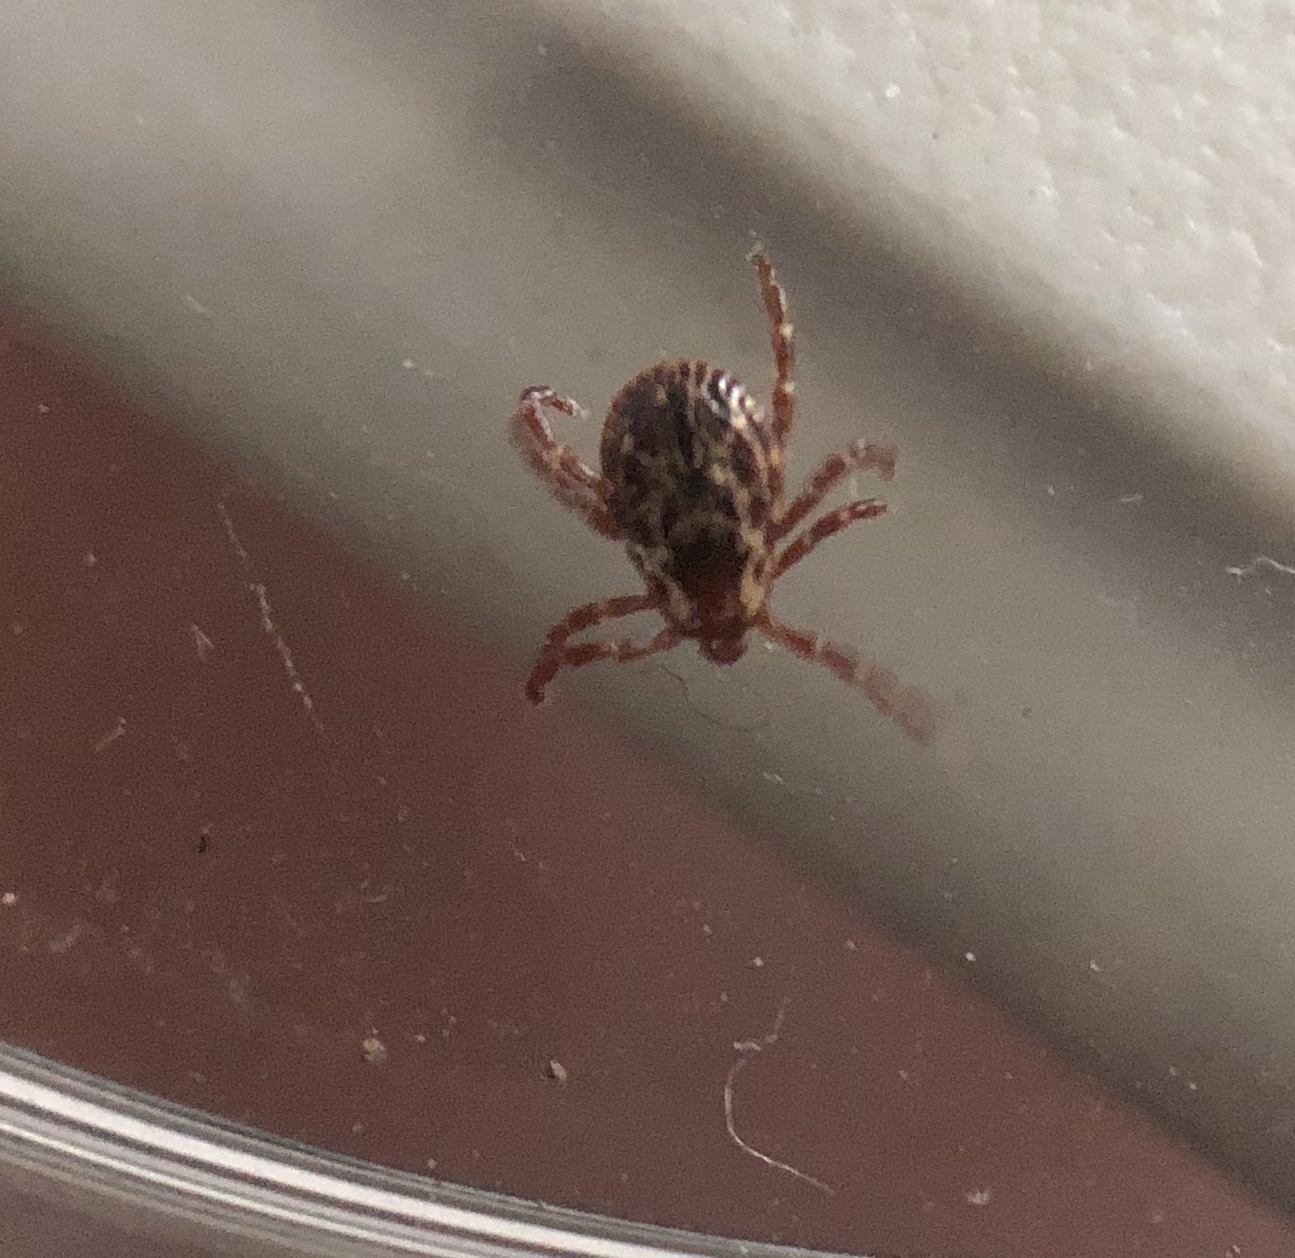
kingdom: Animalia
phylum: Arthropoda
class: Arachnida
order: Ixodida
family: Ixodidae
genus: Dermacentor
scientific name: Dermacentor variabilis
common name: American dog tick
